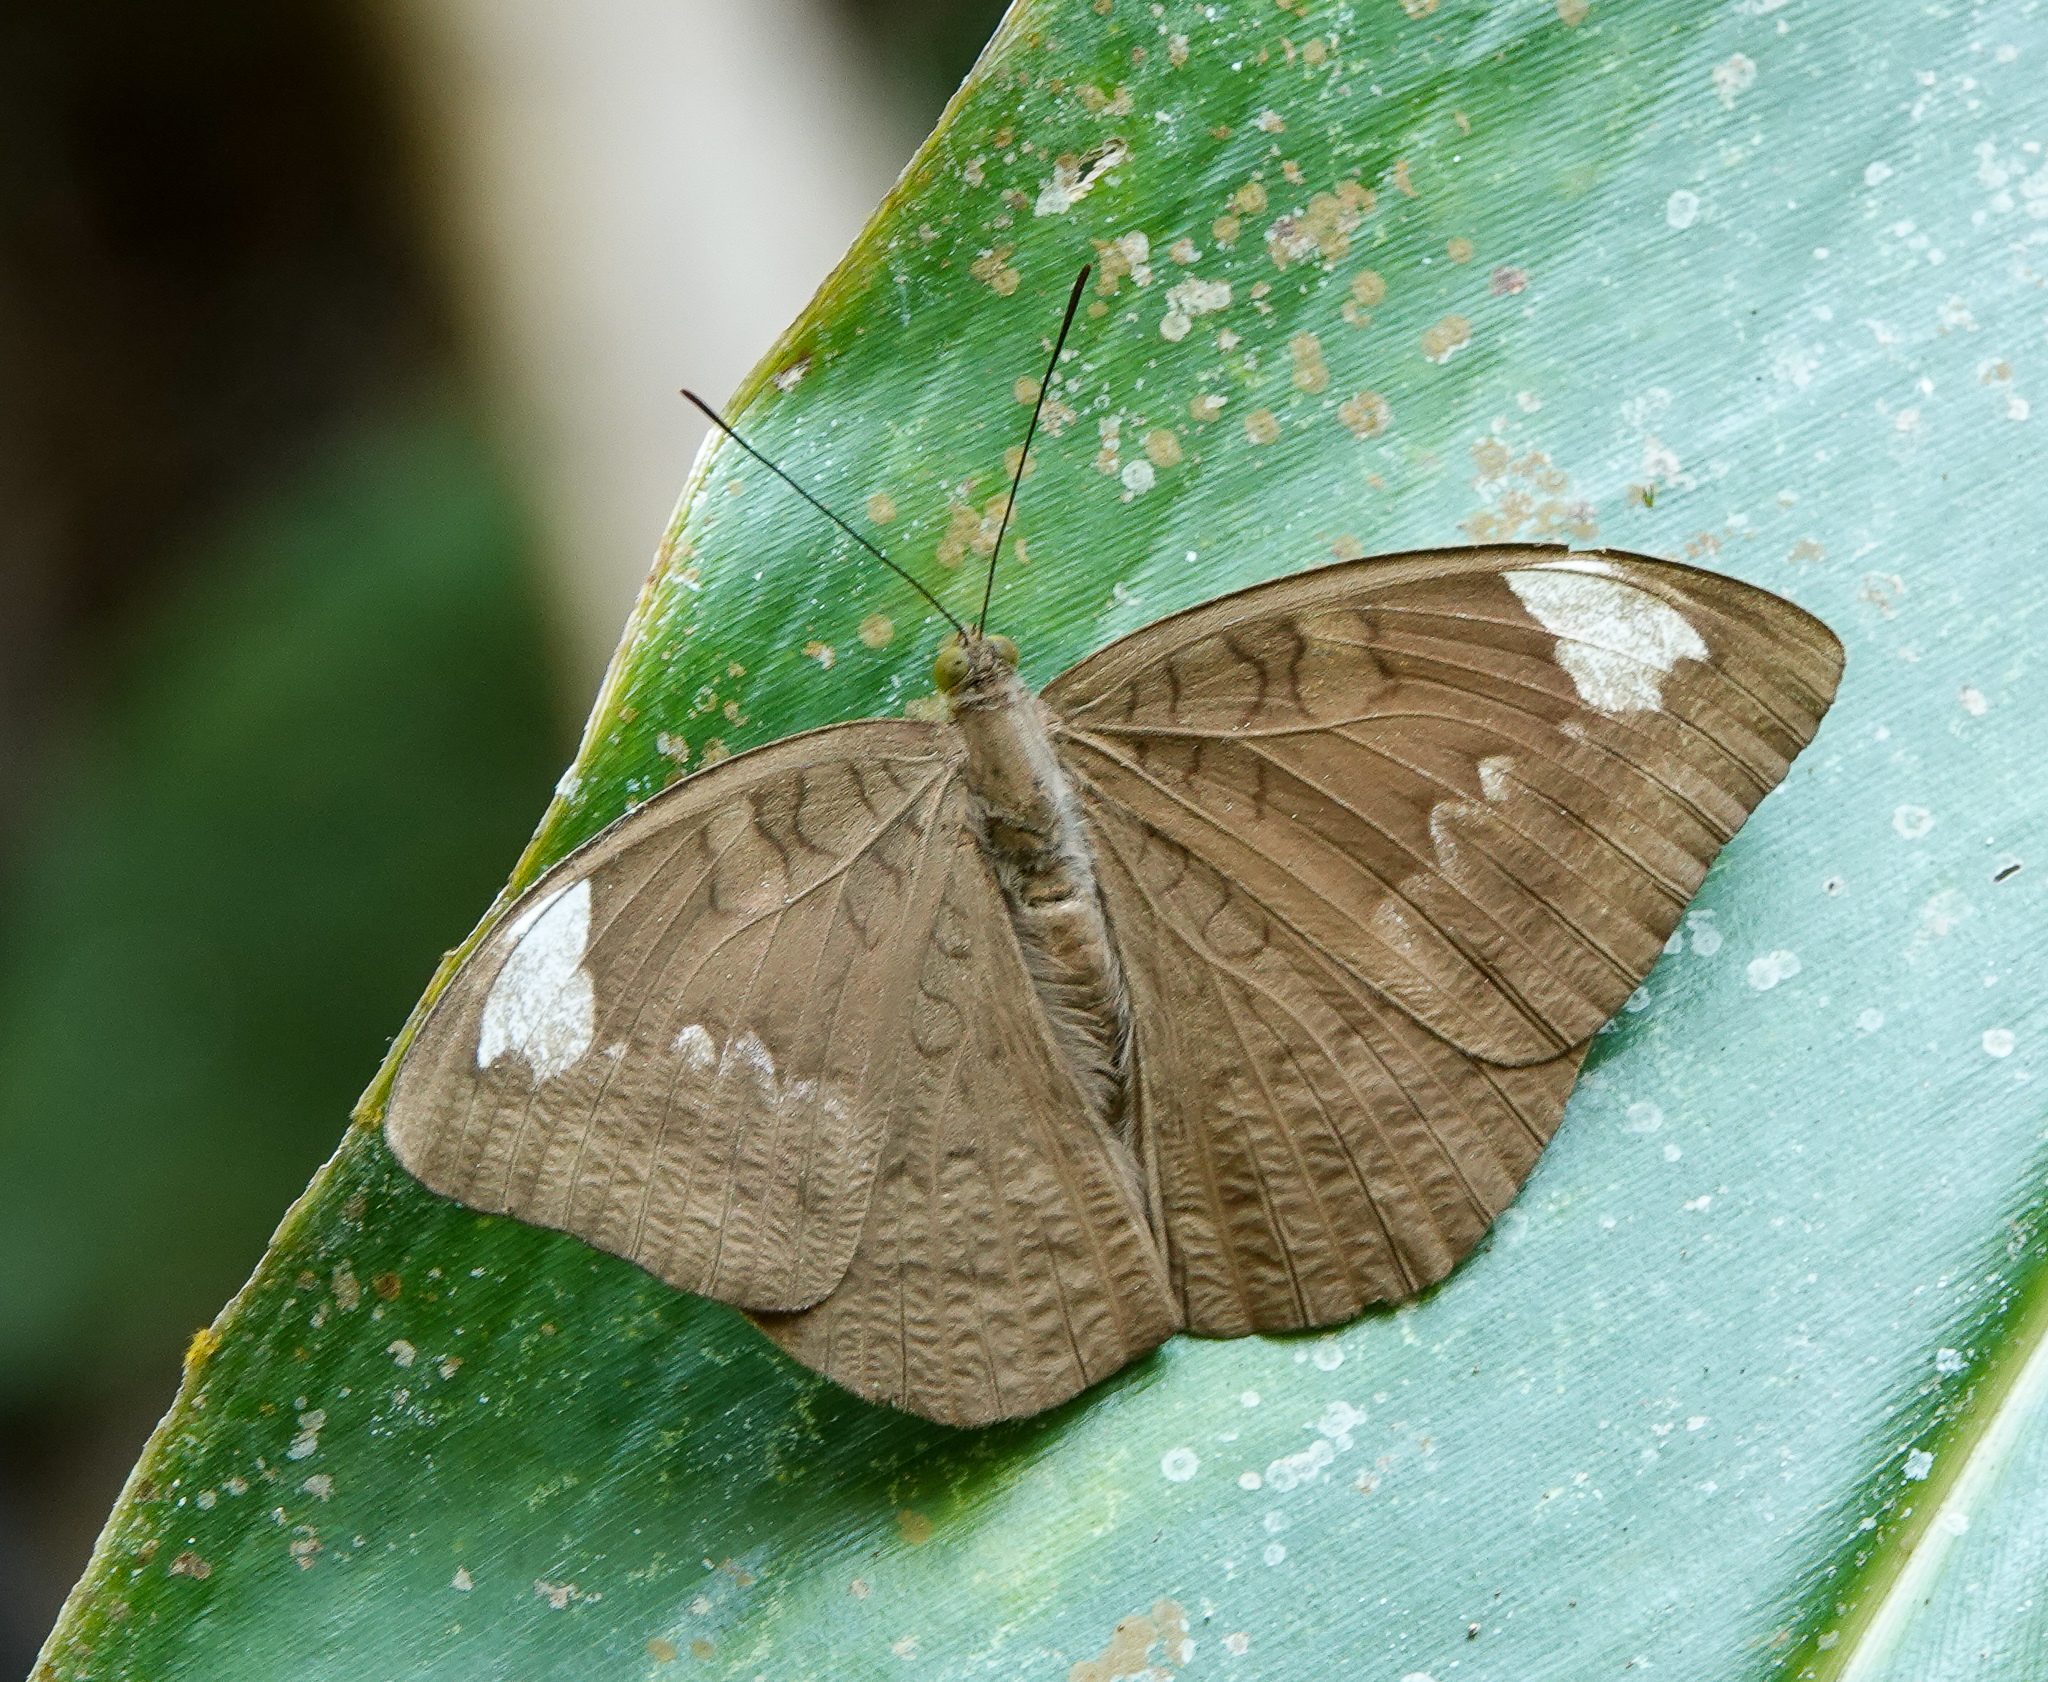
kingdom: Animalia
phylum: Arthropoda
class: Insecta
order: Lepidoptera
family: Nymphalidae
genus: Euthalia
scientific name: Euthalia aconthea
